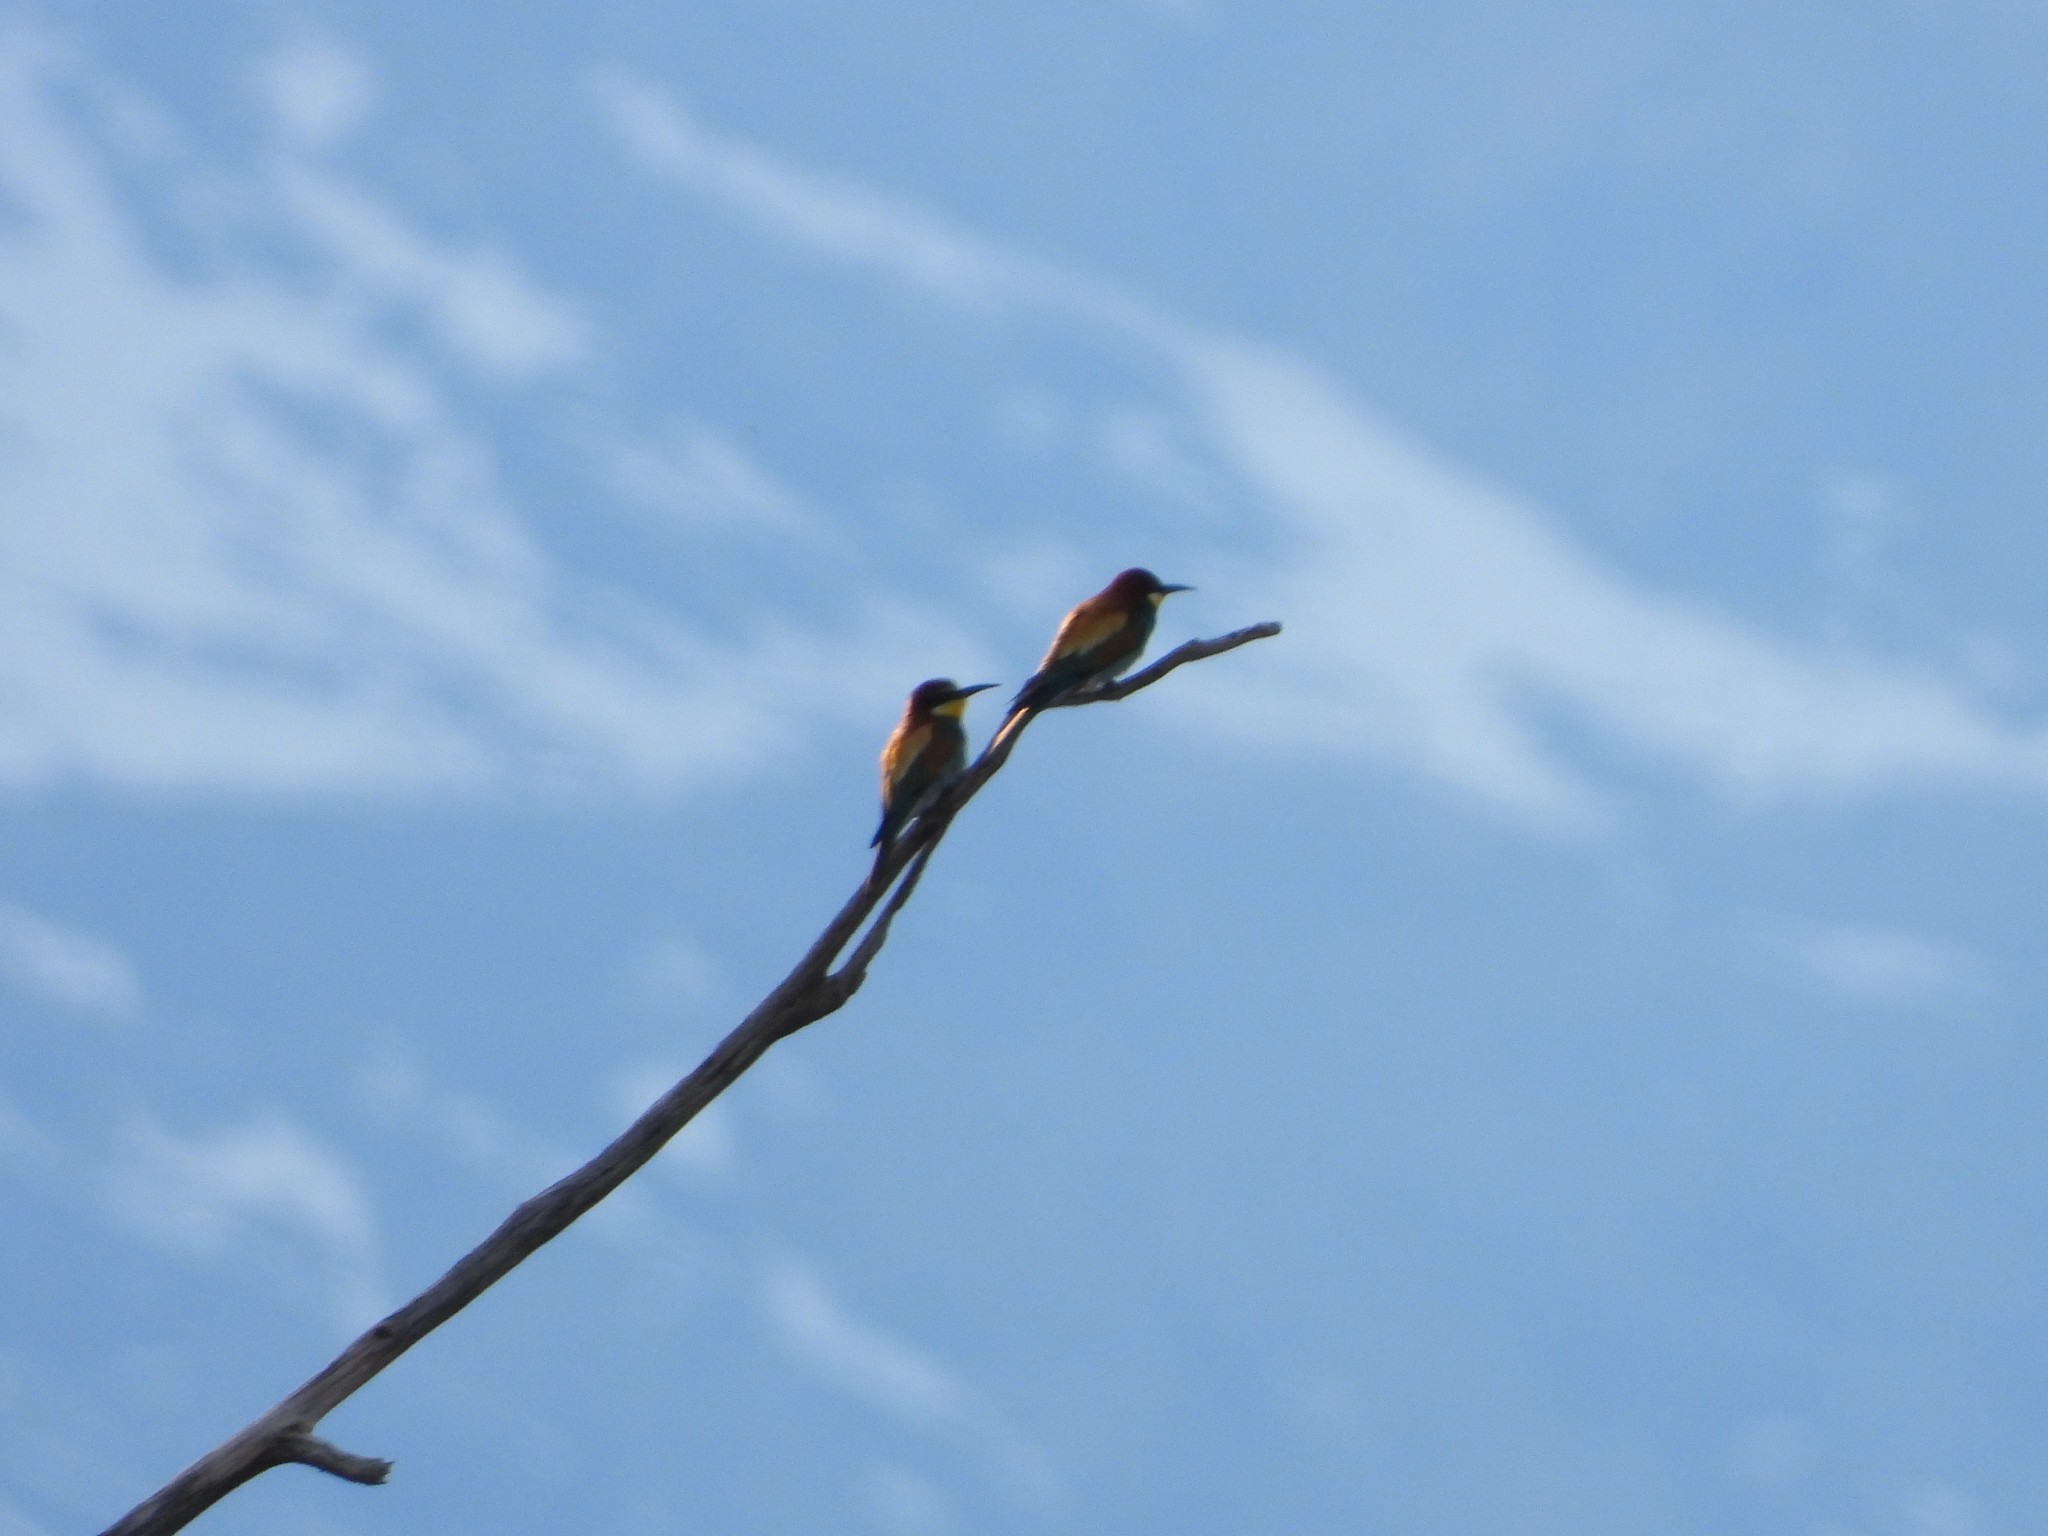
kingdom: Animalia
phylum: Chordata
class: Aves
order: Coraciiformes
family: Meropidae
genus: Merops
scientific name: Merops apiaster
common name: European bee-eater
